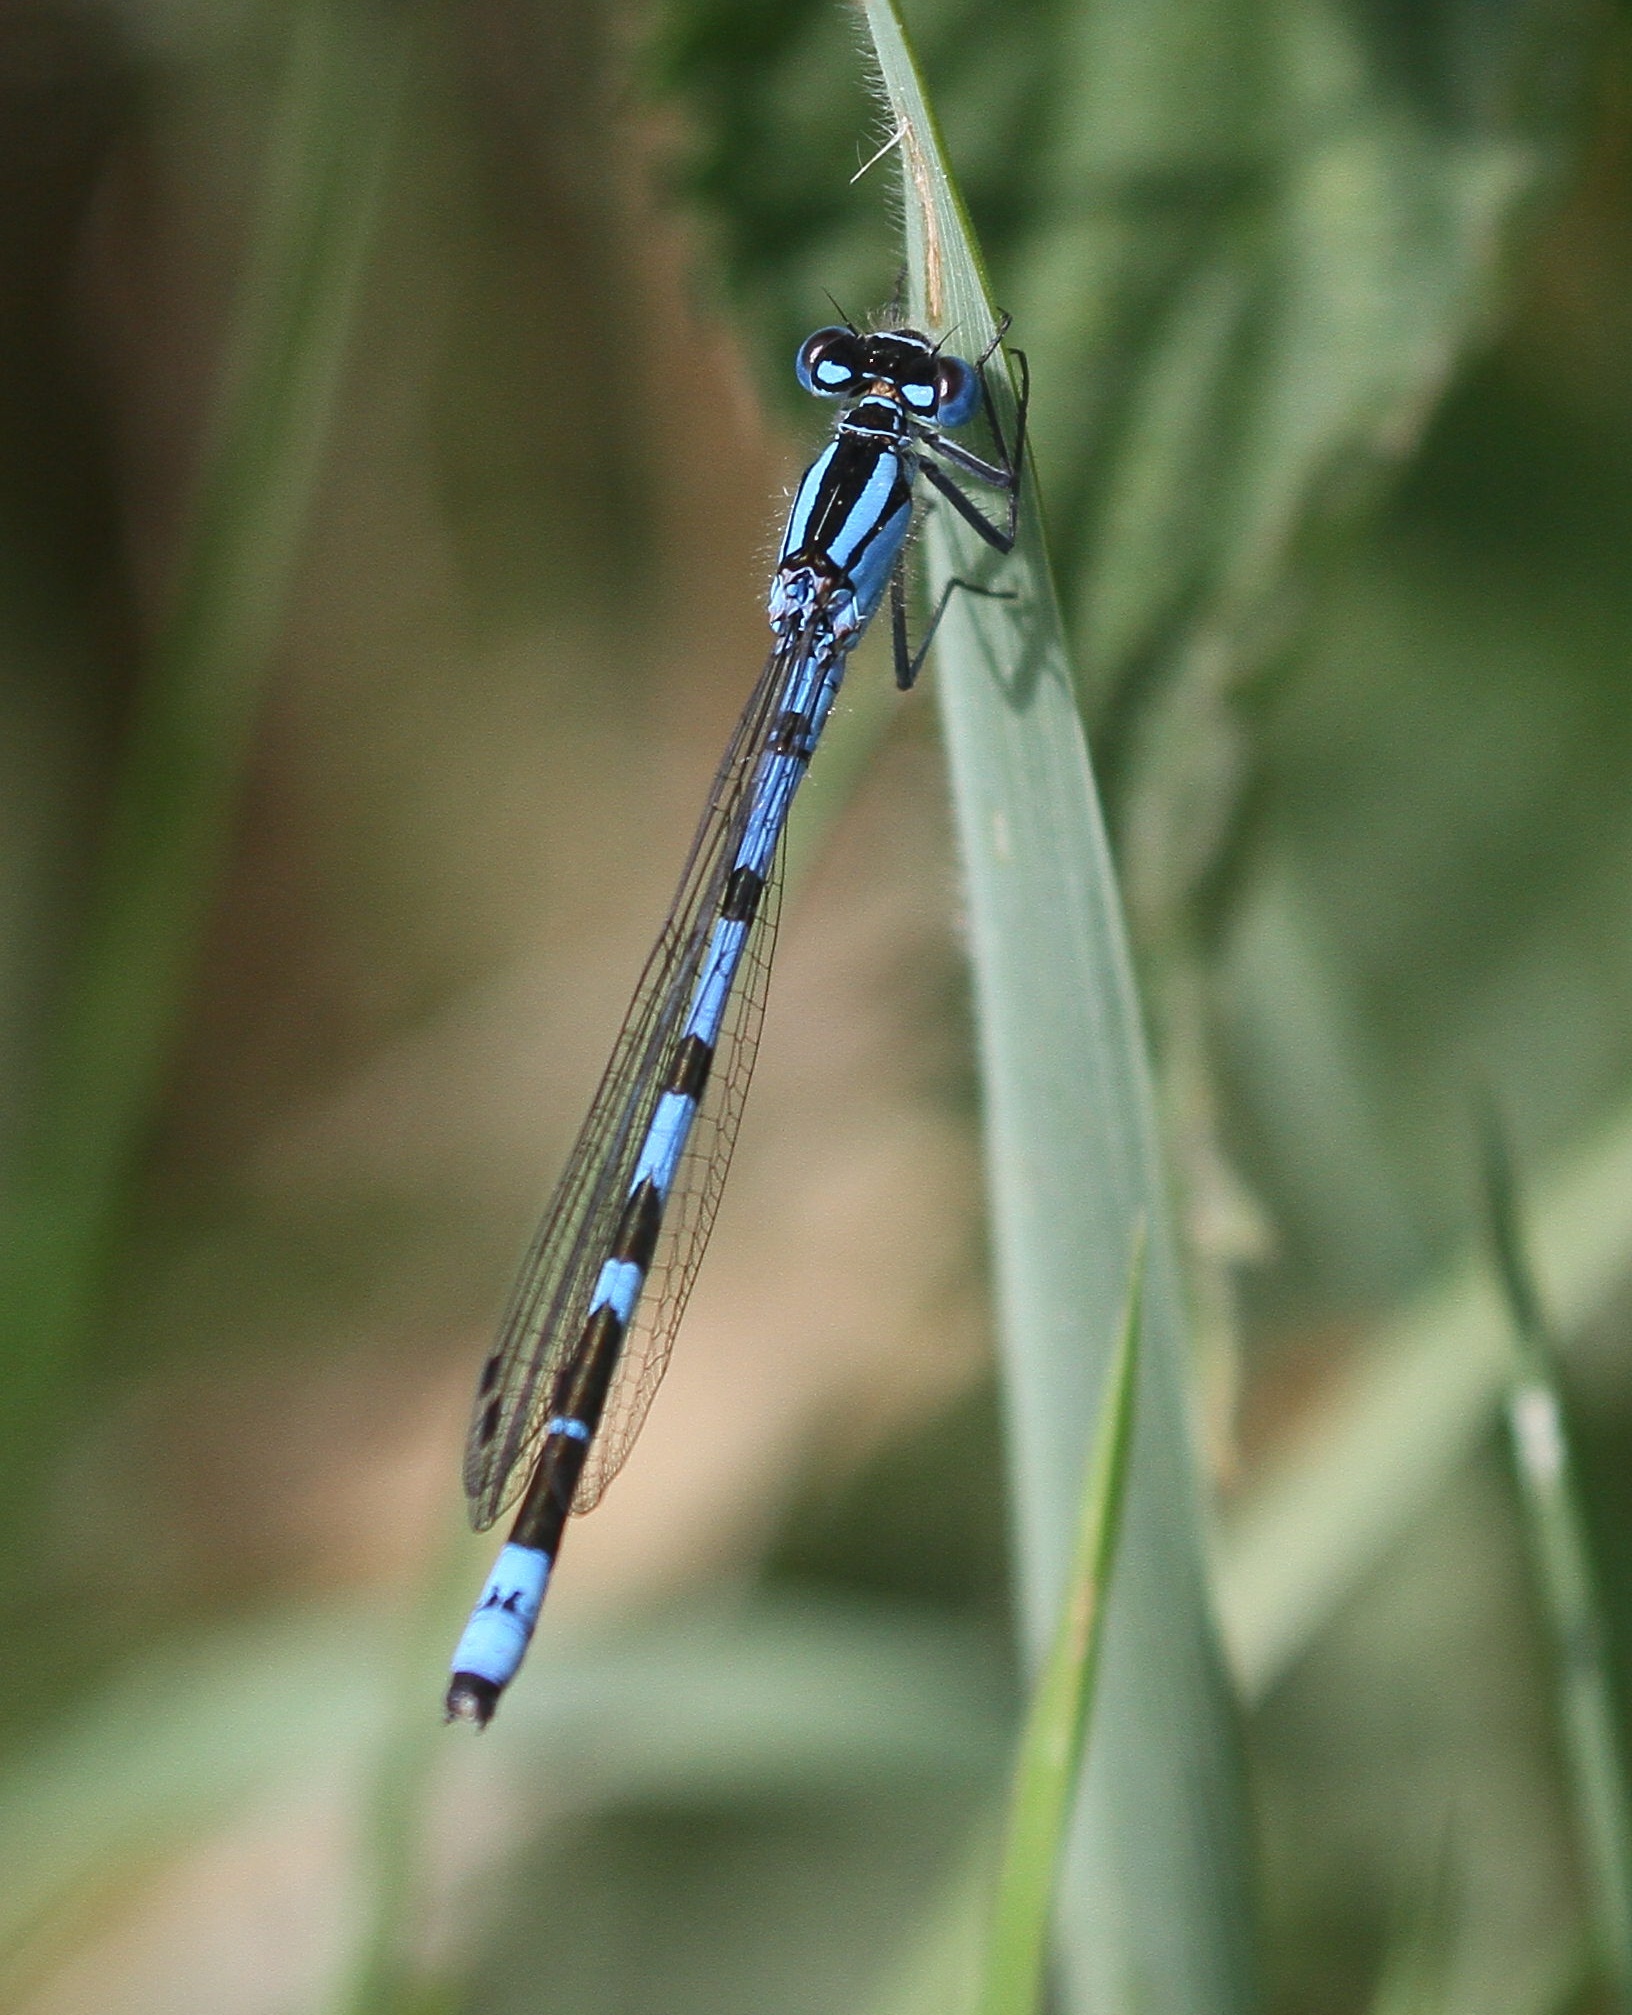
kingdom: Animalia
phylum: Arthropoda
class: Insecta
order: Odonata
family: Coenagrionidae
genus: Enallagma
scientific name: Enallagma cyathigerum
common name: Common blue damselfly
